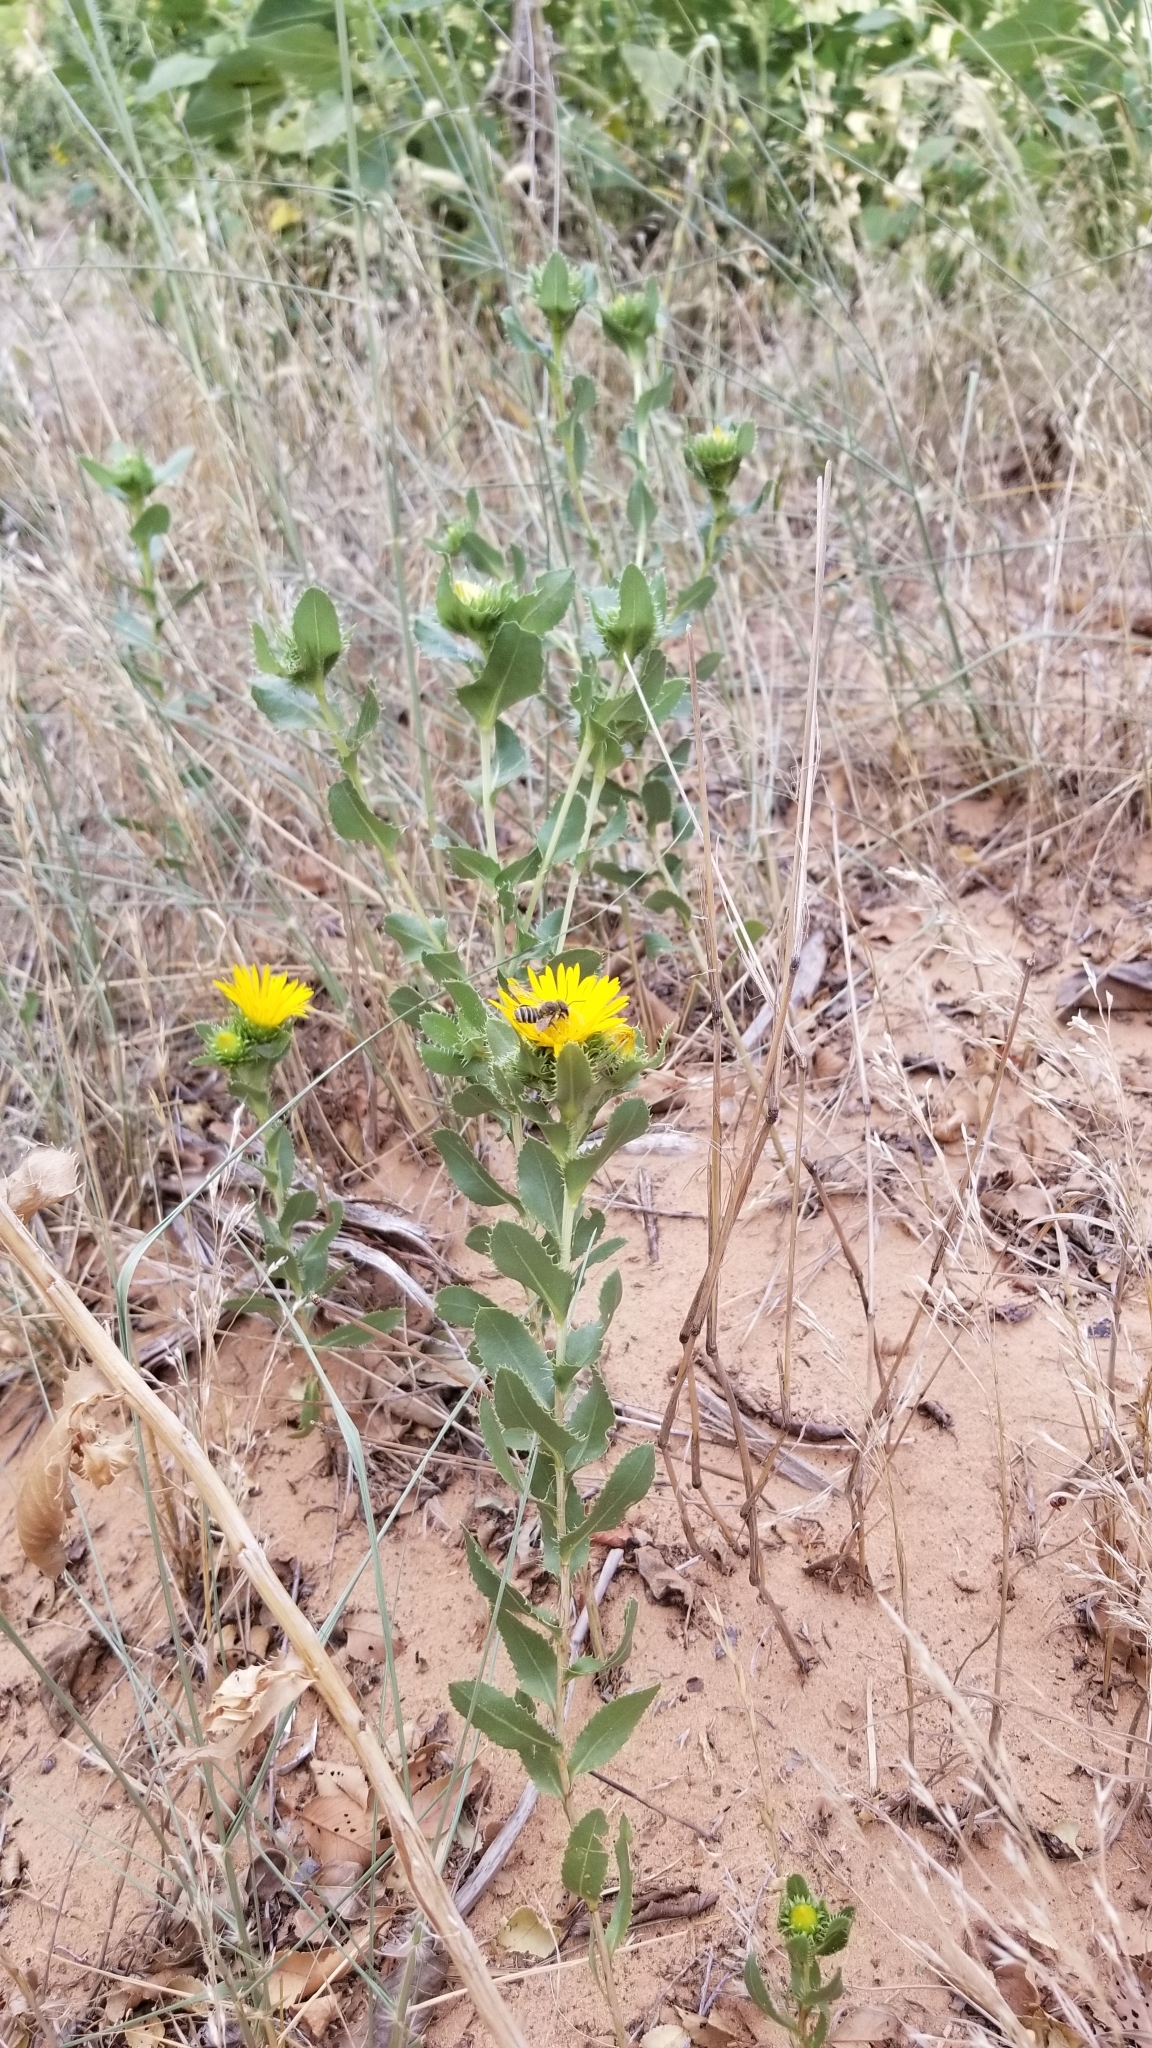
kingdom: Plantae
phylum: Tracheophyta
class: Magnoliopsida
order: Asterales
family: Asteraceae
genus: Grindelia
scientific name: Grindelia ciliata
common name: Goldenweed
